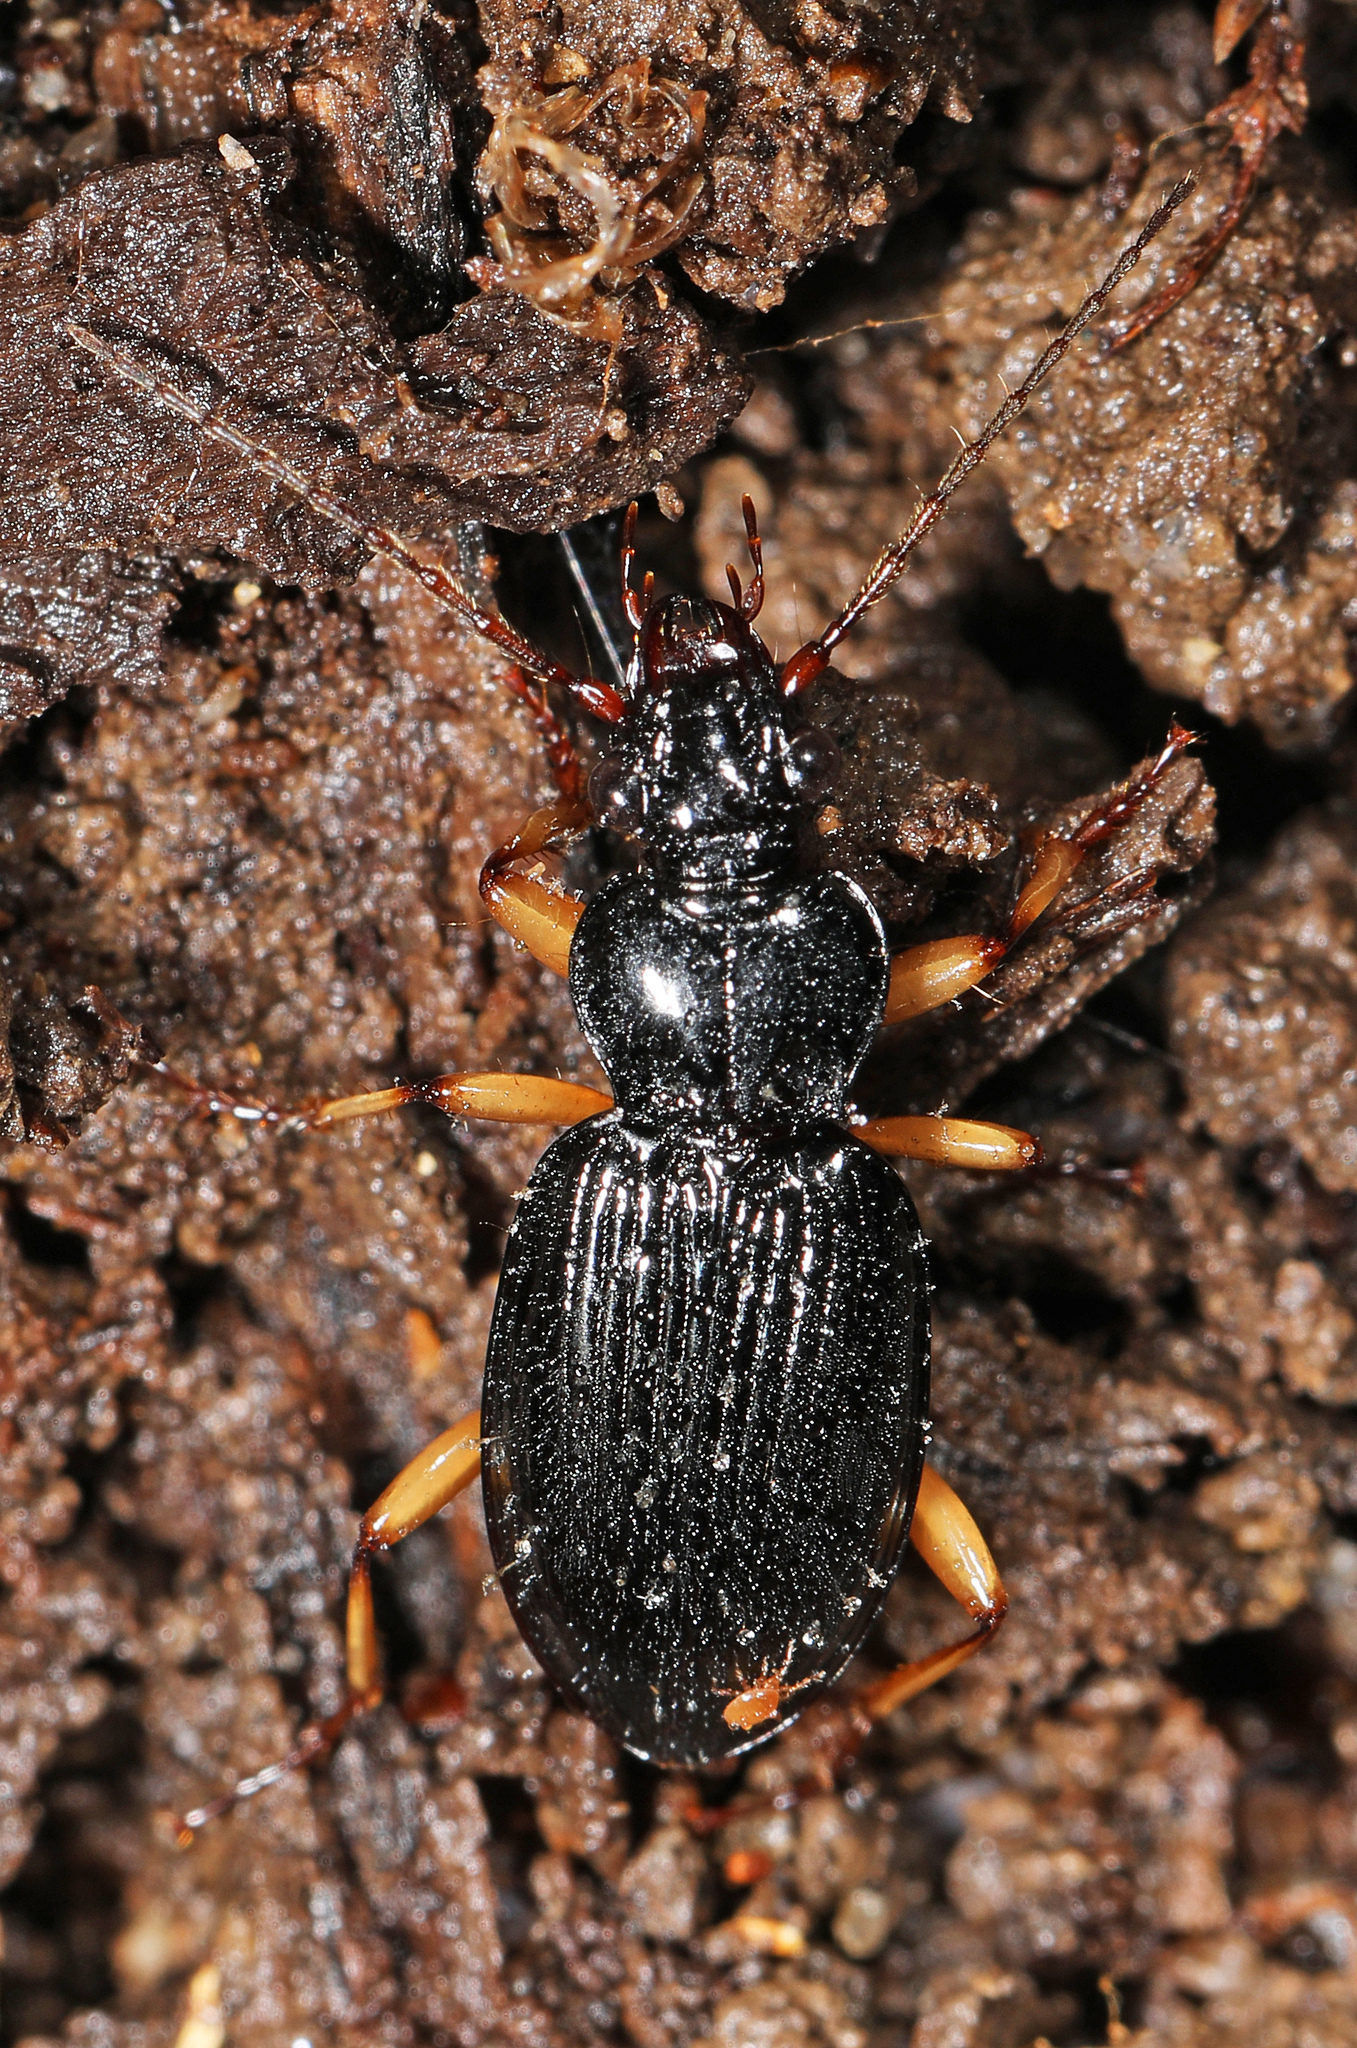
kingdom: Animalia
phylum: Arthropoda
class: Insecta
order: Coleoptera
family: Carabidae
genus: Patrobus
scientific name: Patrobus longicornis
